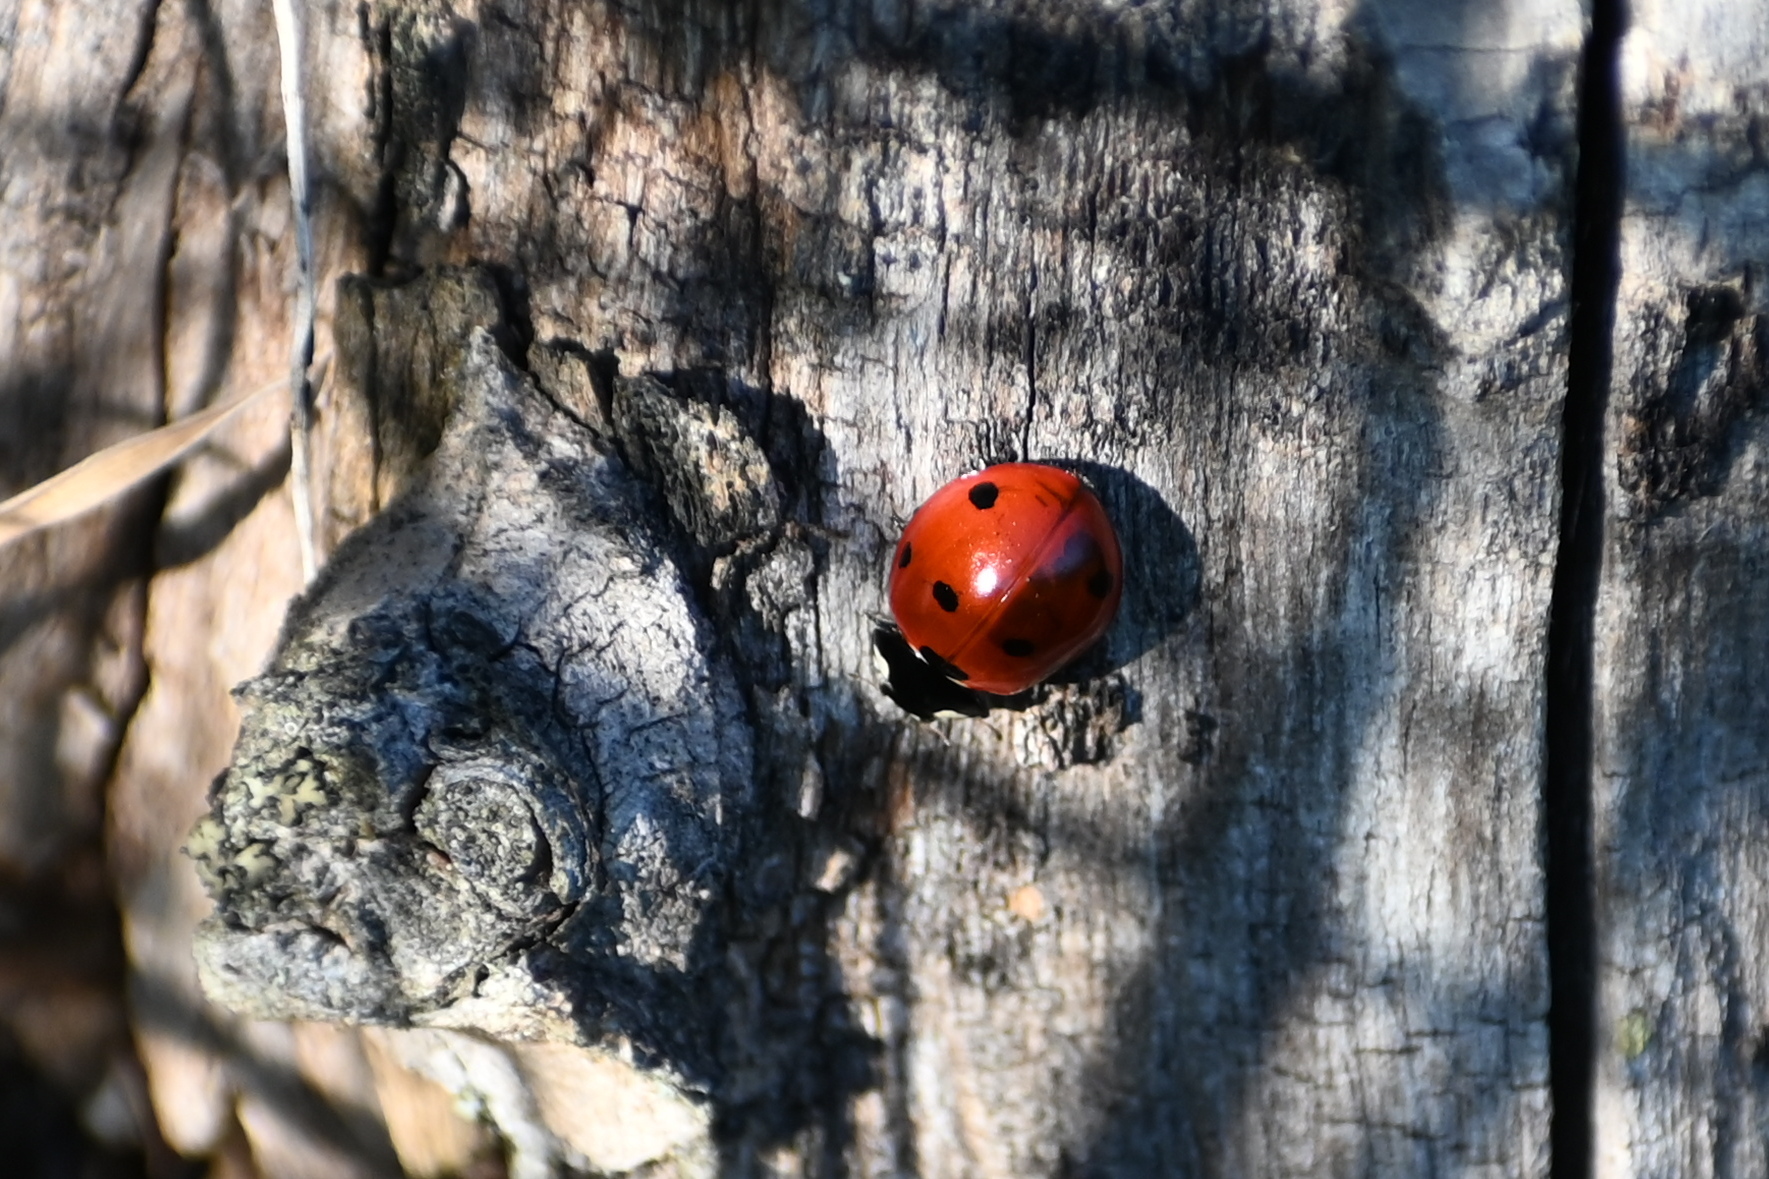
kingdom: Animalia
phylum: Arthropoda
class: Insecta
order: Coleoptera
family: Coccinellidae
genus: Coccinella
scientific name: Coccinella septempunctata
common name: Sevenspotted lady beetle
